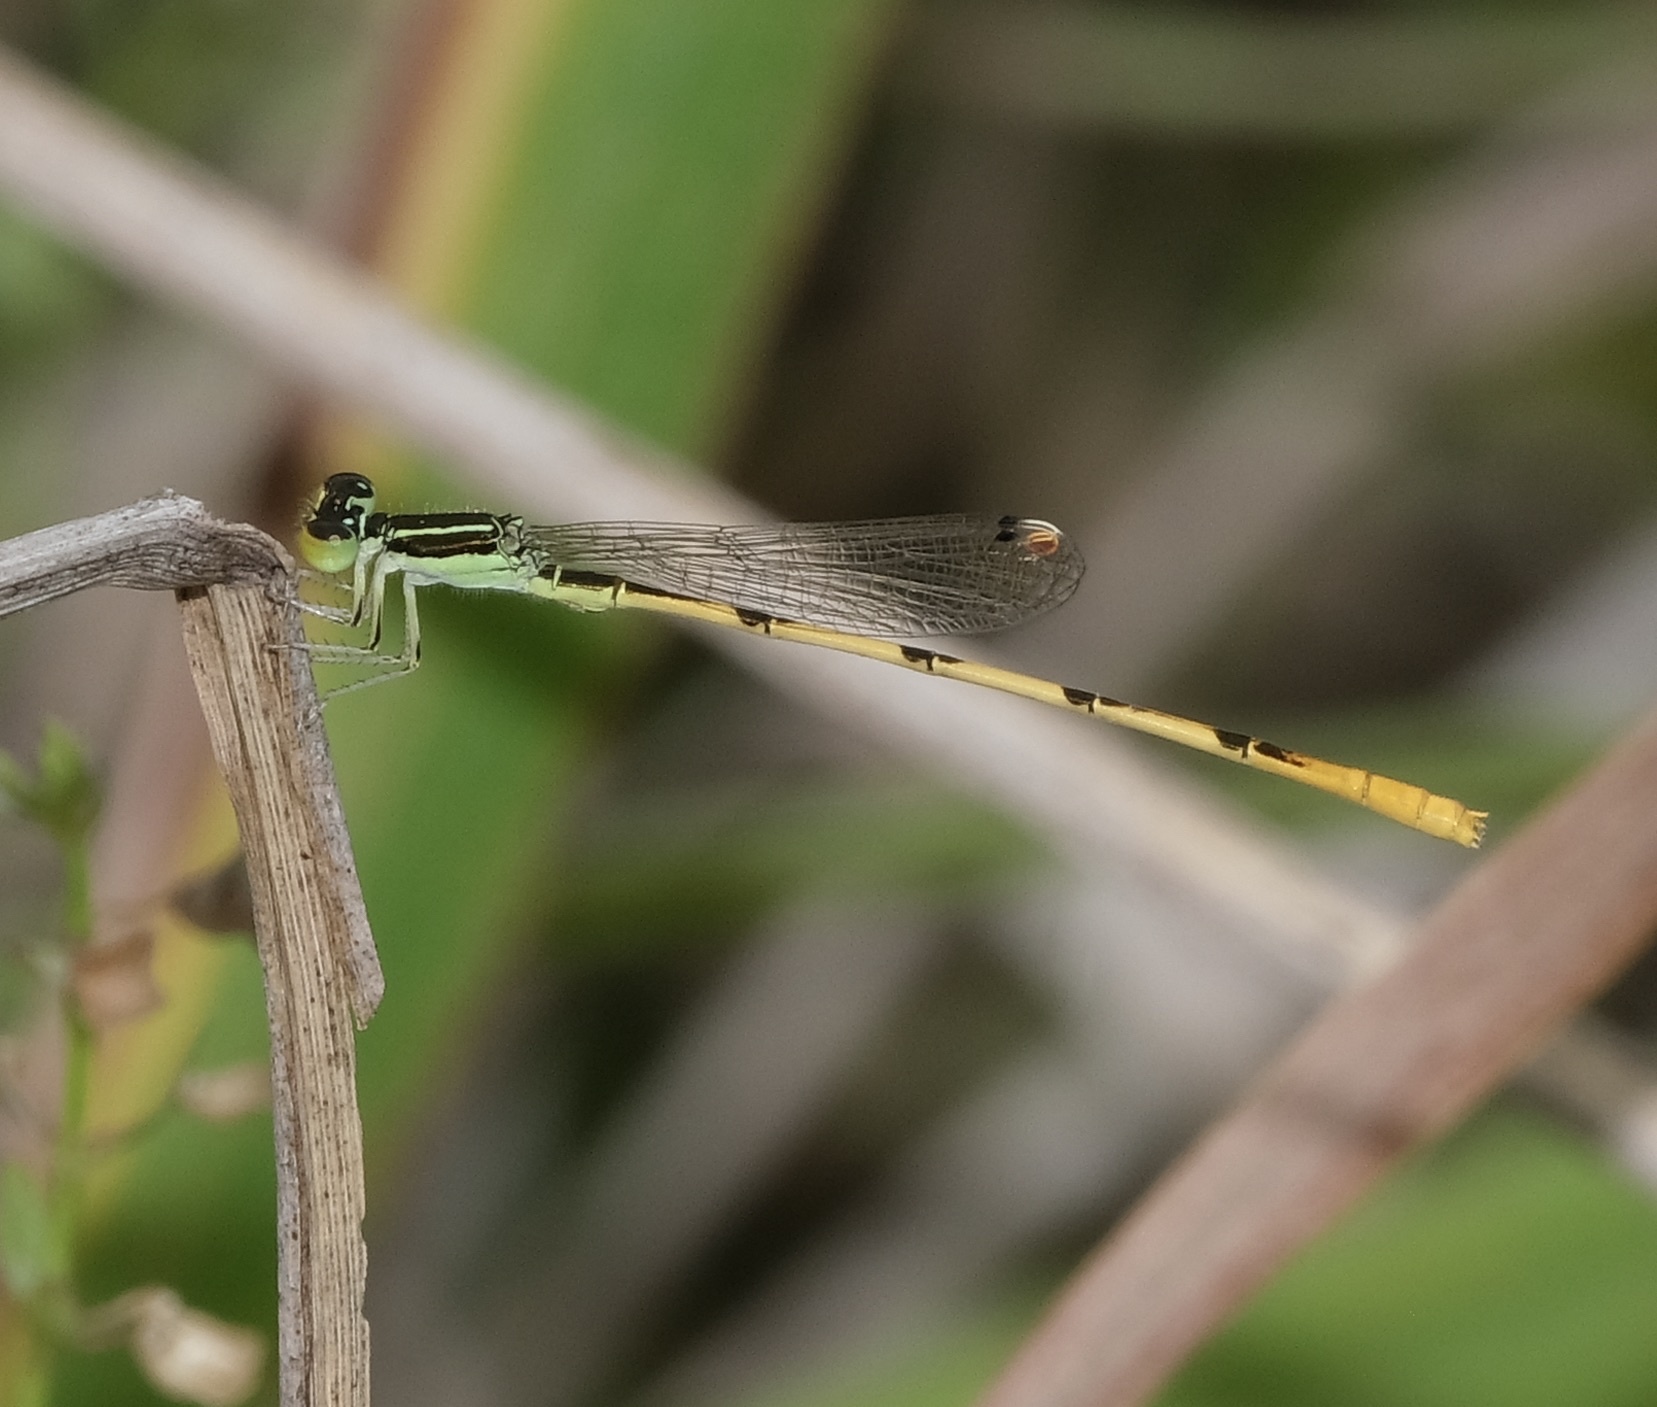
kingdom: Animalia
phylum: Arthropoda
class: Insecta
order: Odonata
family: Coenagrionidae
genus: Ischnura
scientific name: Ischnura hastata
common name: Citrine forktail
